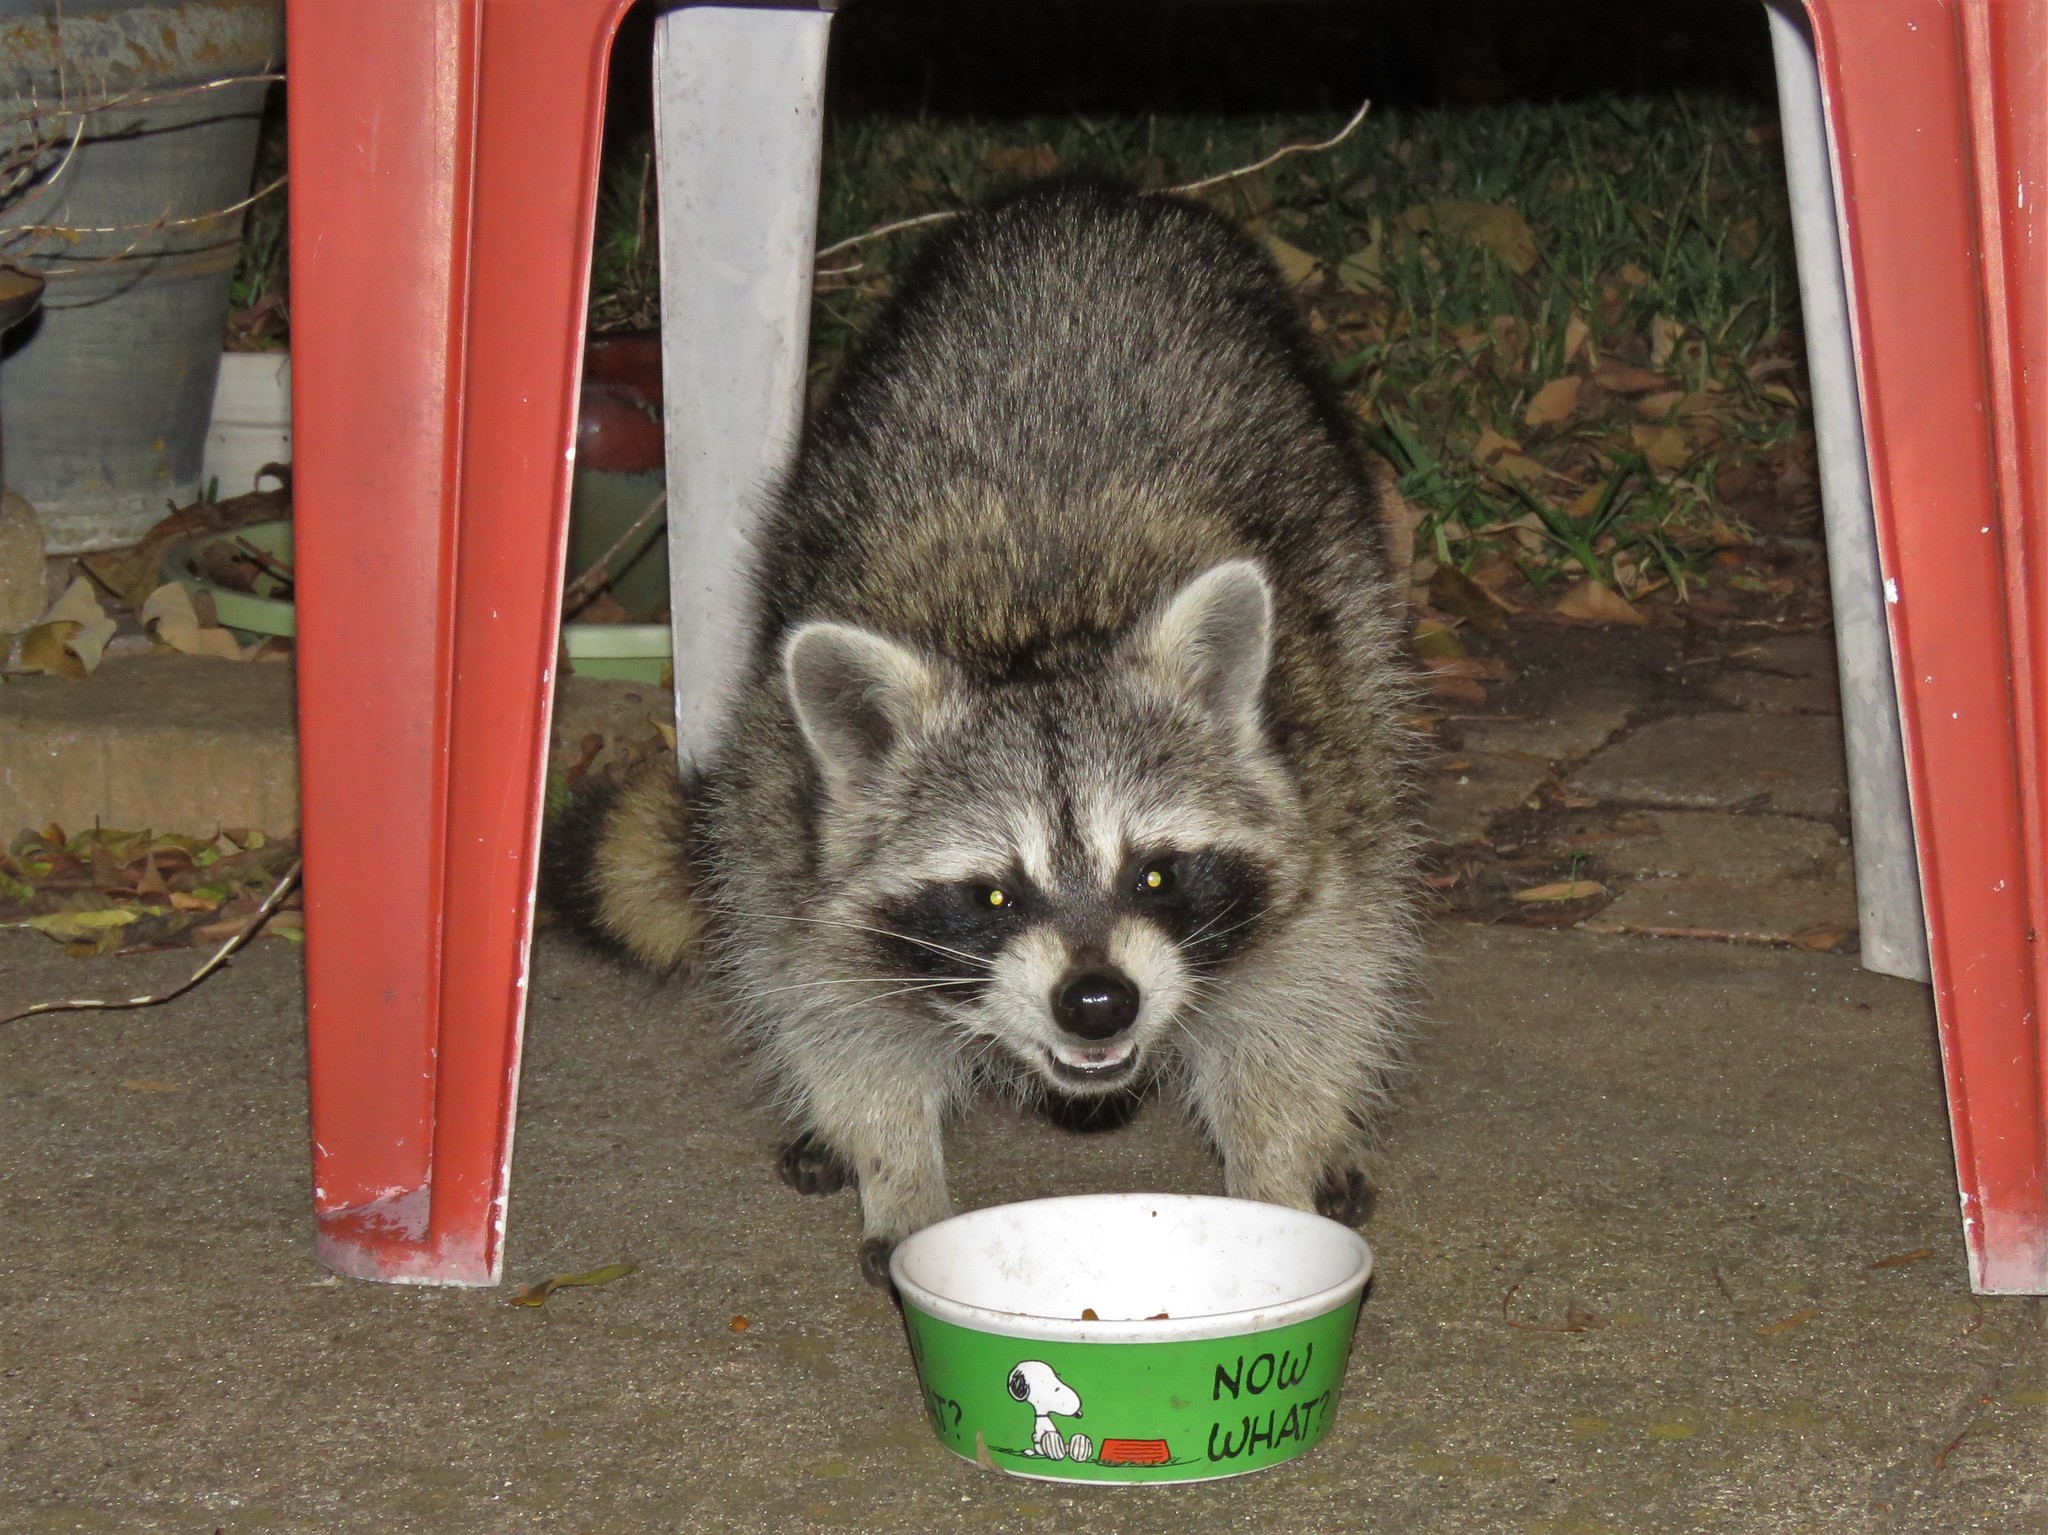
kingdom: Animalia
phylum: Chordata
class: Mammalia
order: Carnivora
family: Procyonidae
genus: Procyon
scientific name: Procyon lotor
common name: Raccoon
